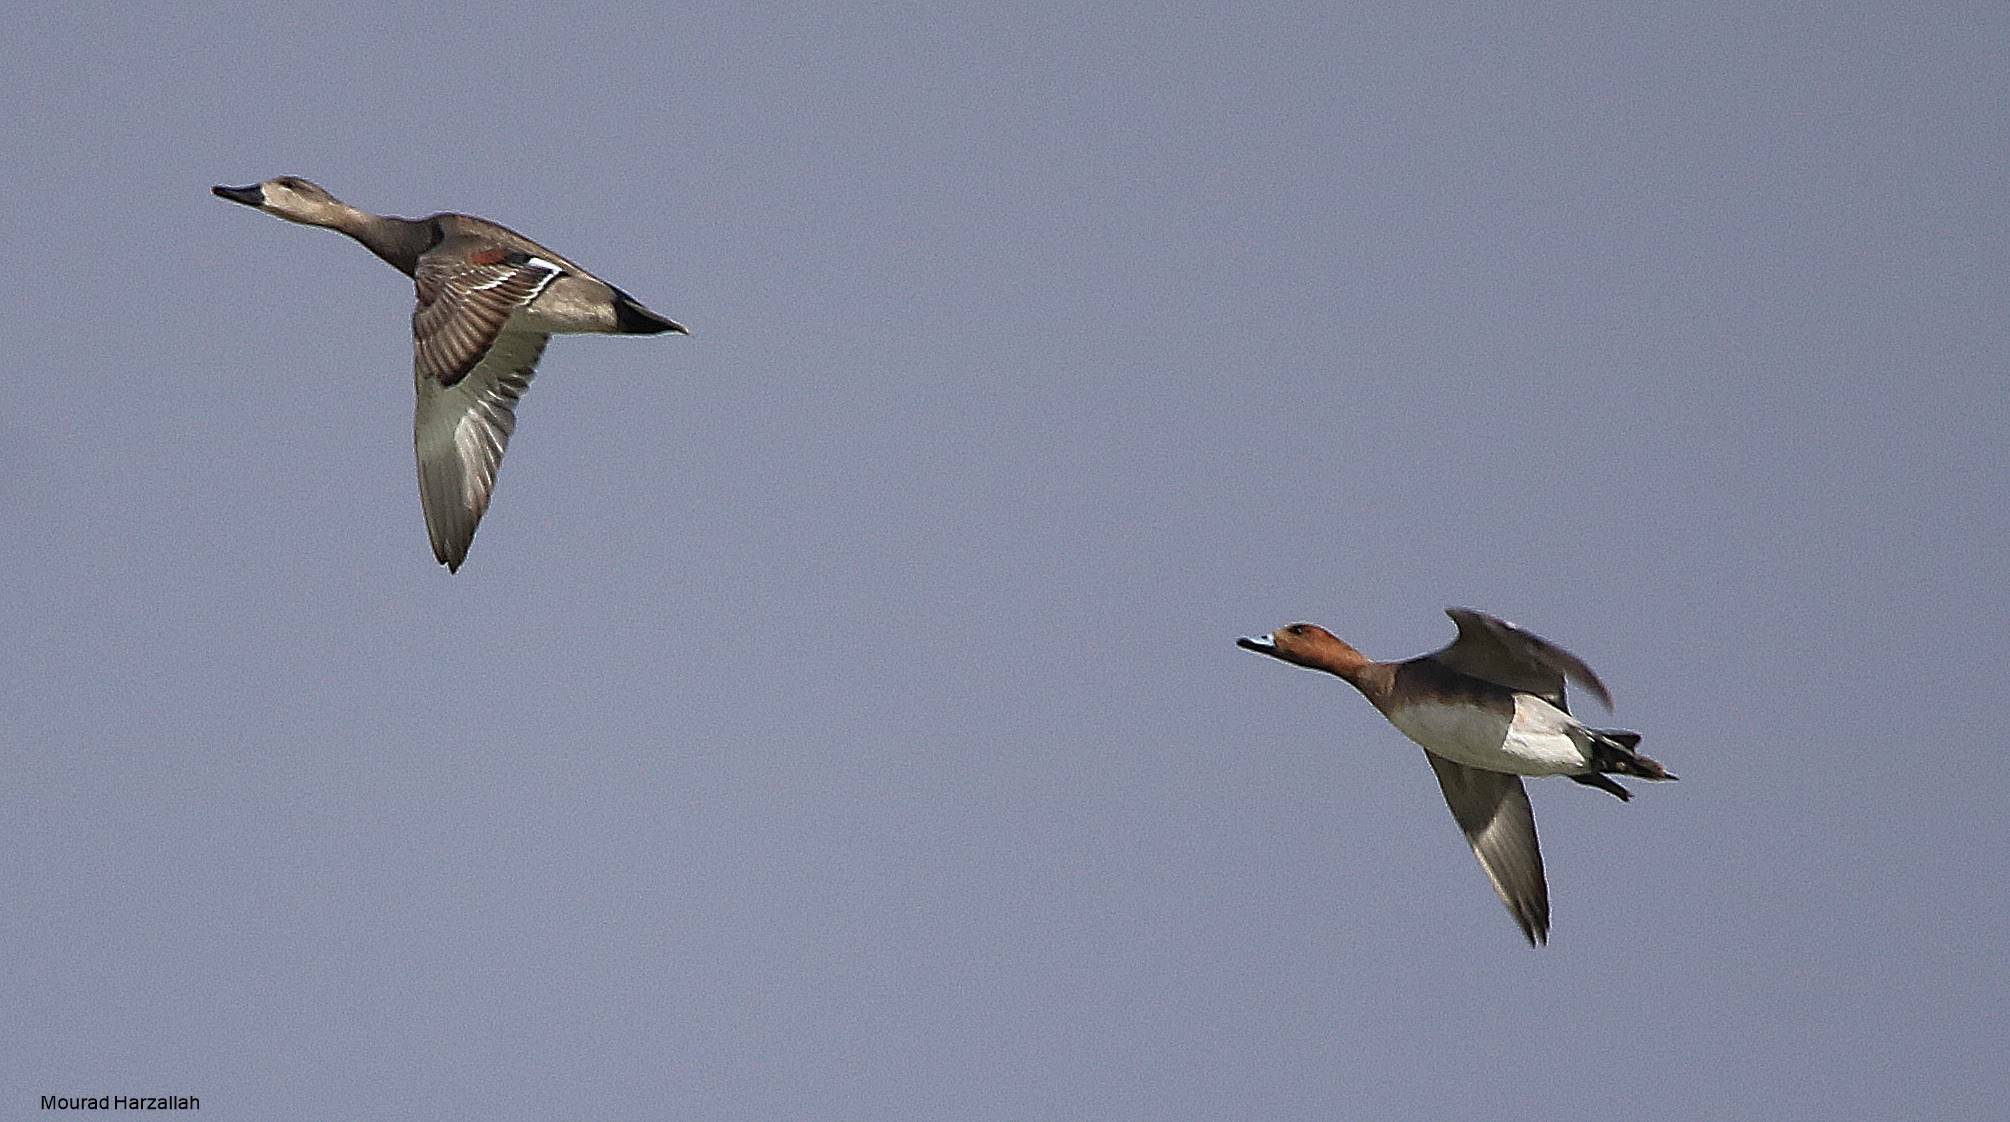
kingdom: Animalia
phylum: Chordata
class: Aves
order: Anseriformes
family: Anatidae
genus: Mareca
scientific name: Mareca penelope
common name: Eurasian wigeon
